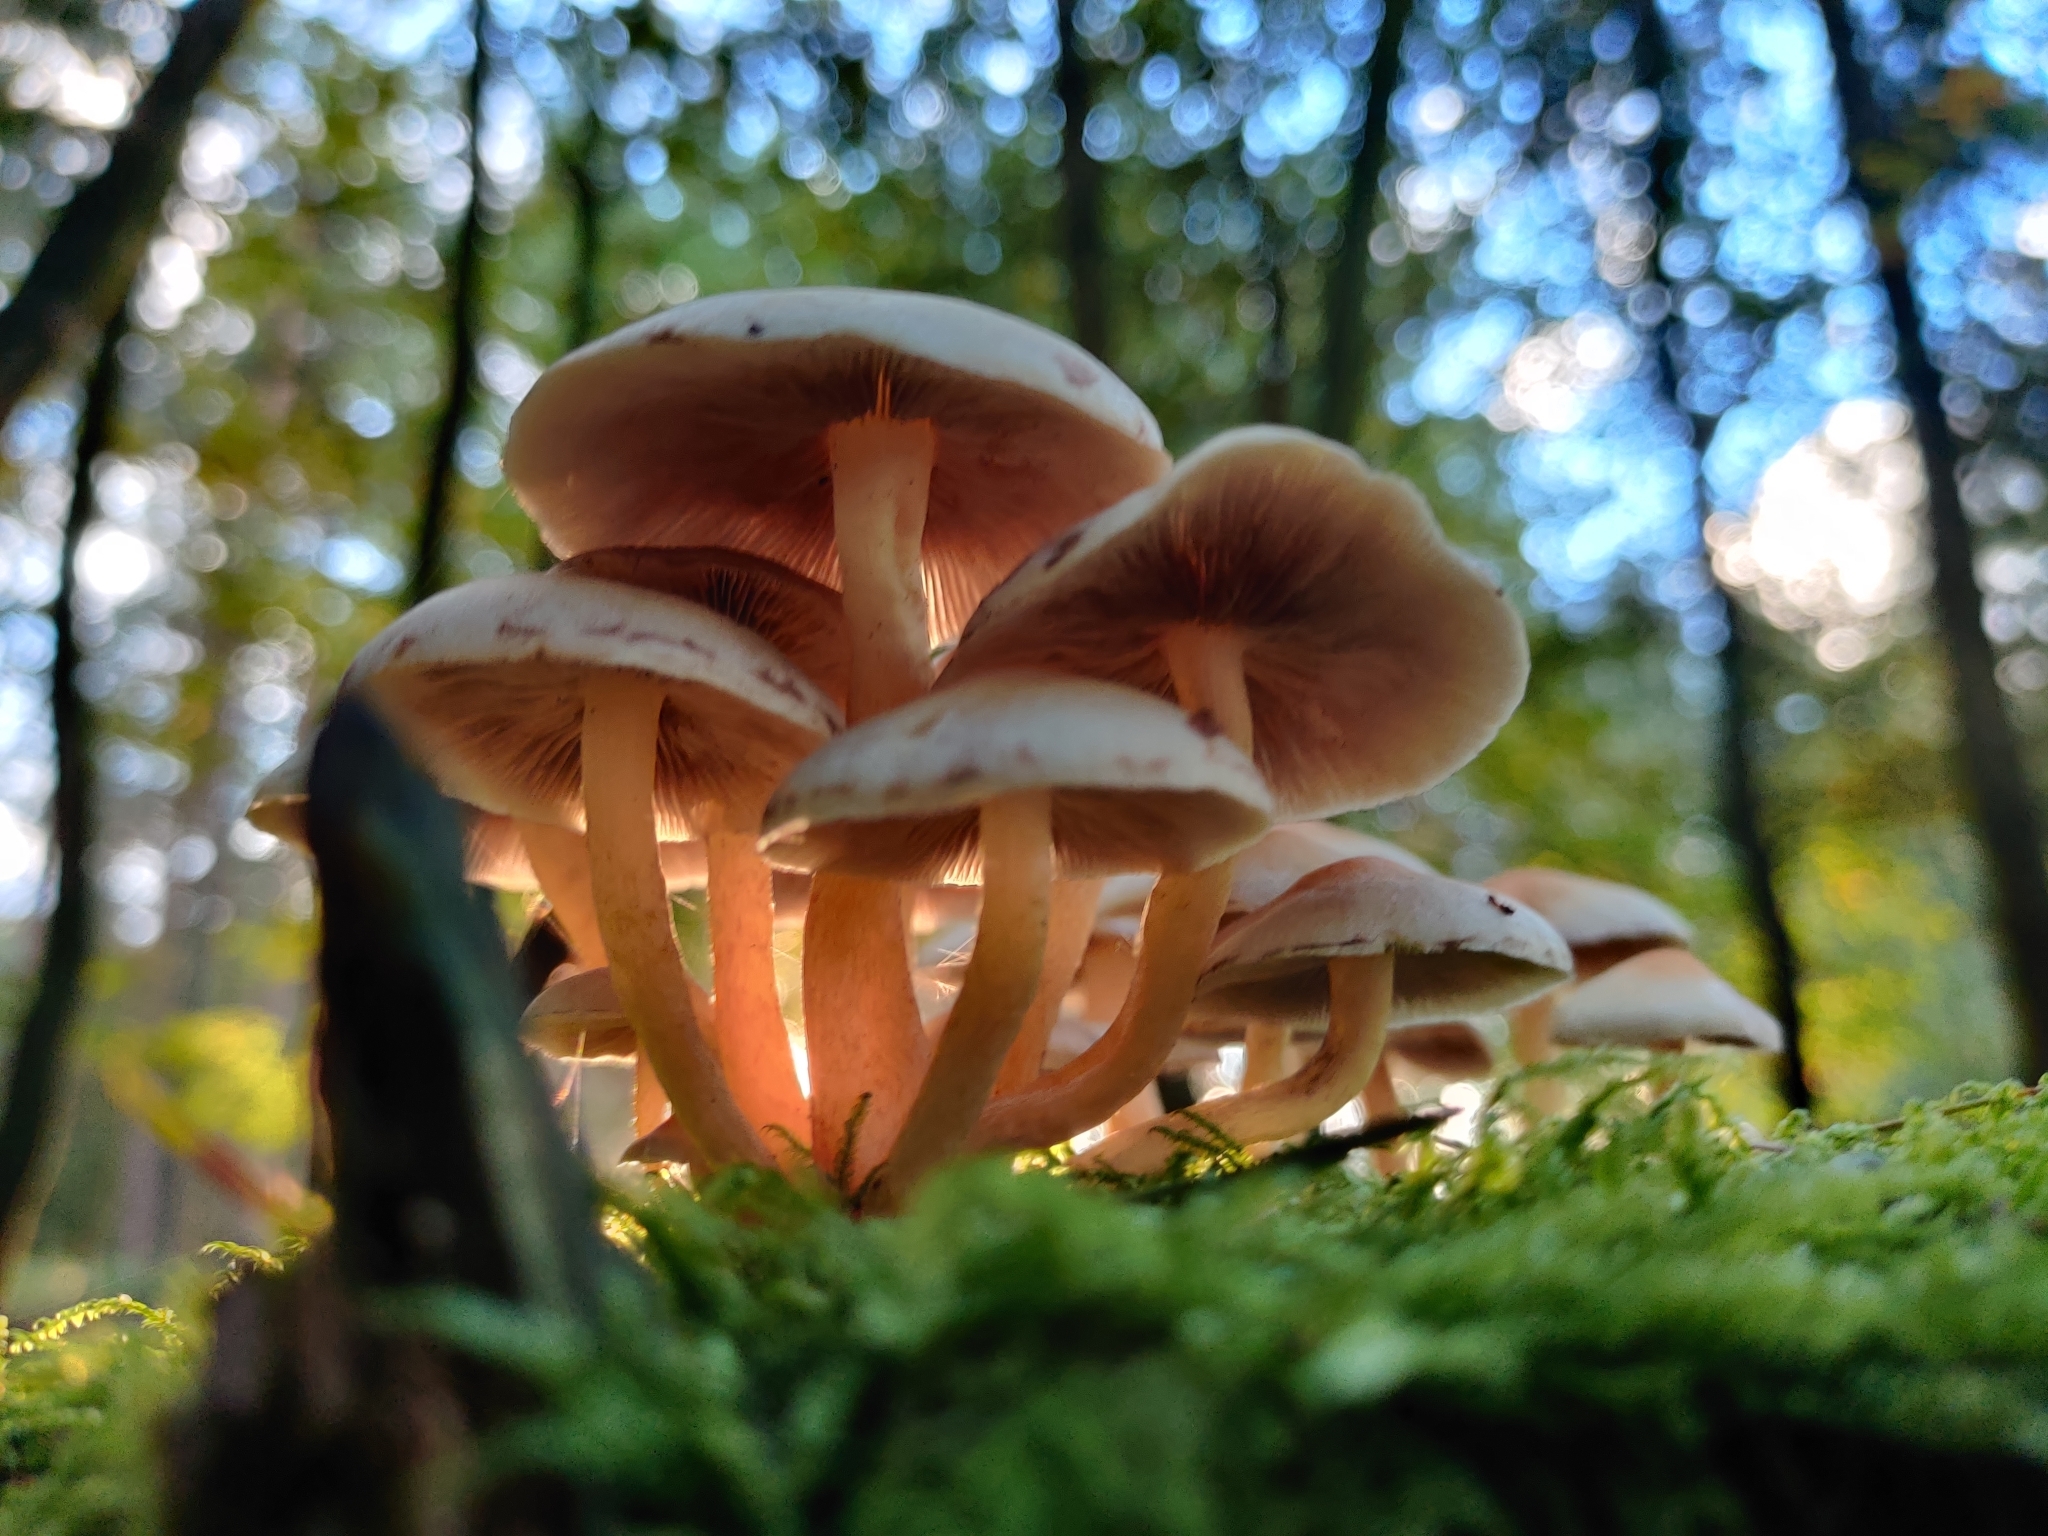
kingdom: Fungi
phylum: Basidiomycota
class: Agaricomycetes
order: Agaricales
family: Strophariaceae
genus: Hypholoma
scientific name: Hypholoma fasciculare
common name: Sulphur tuft
